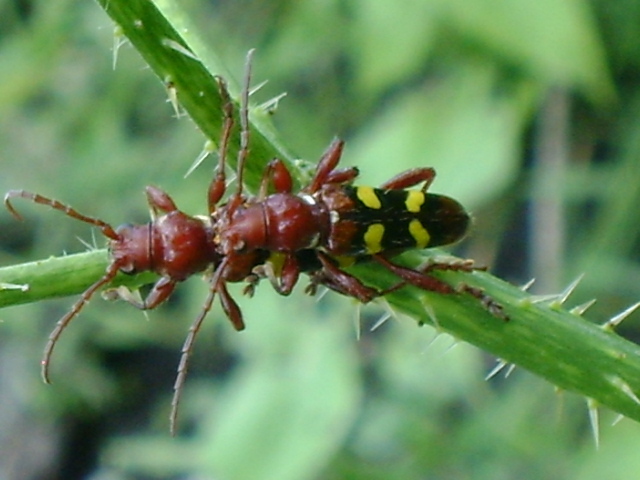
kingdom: Animalia
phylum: Arthropoda
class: Insecta
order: Coleoptera
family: Cerambycidae
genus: Stenygra
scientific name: Stenygra histrio
